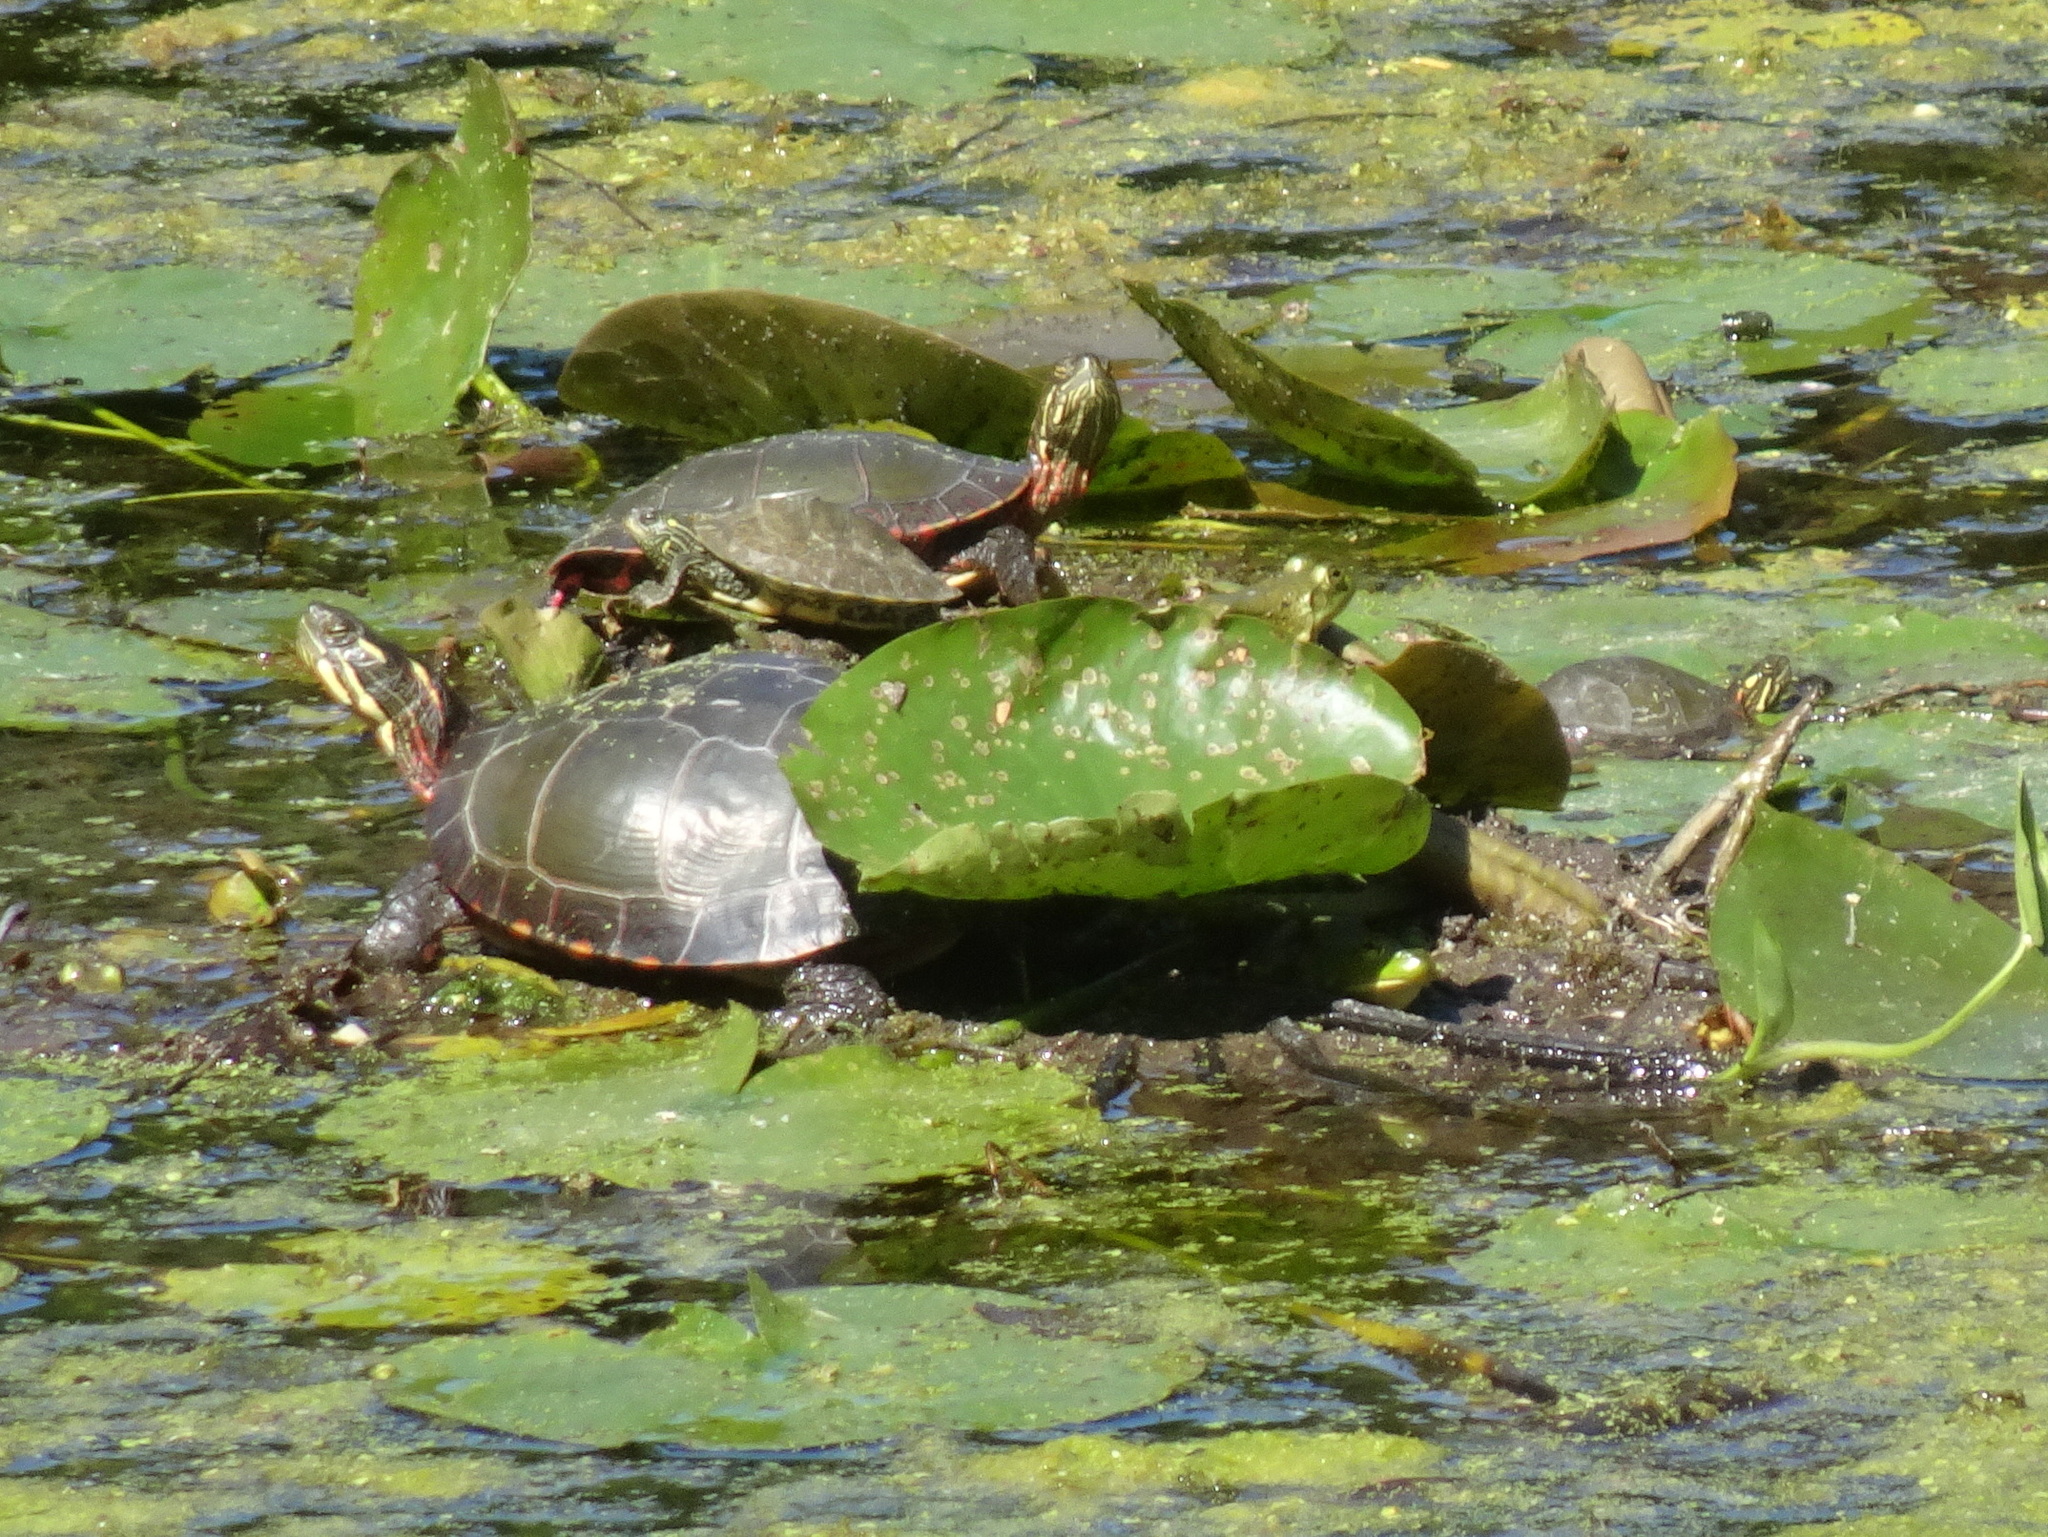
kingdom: Animalia
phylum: Chordata
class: Testudines
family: Emydidae
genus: Chrysemys
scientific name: Chrysemys picta
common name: Painted turtle
